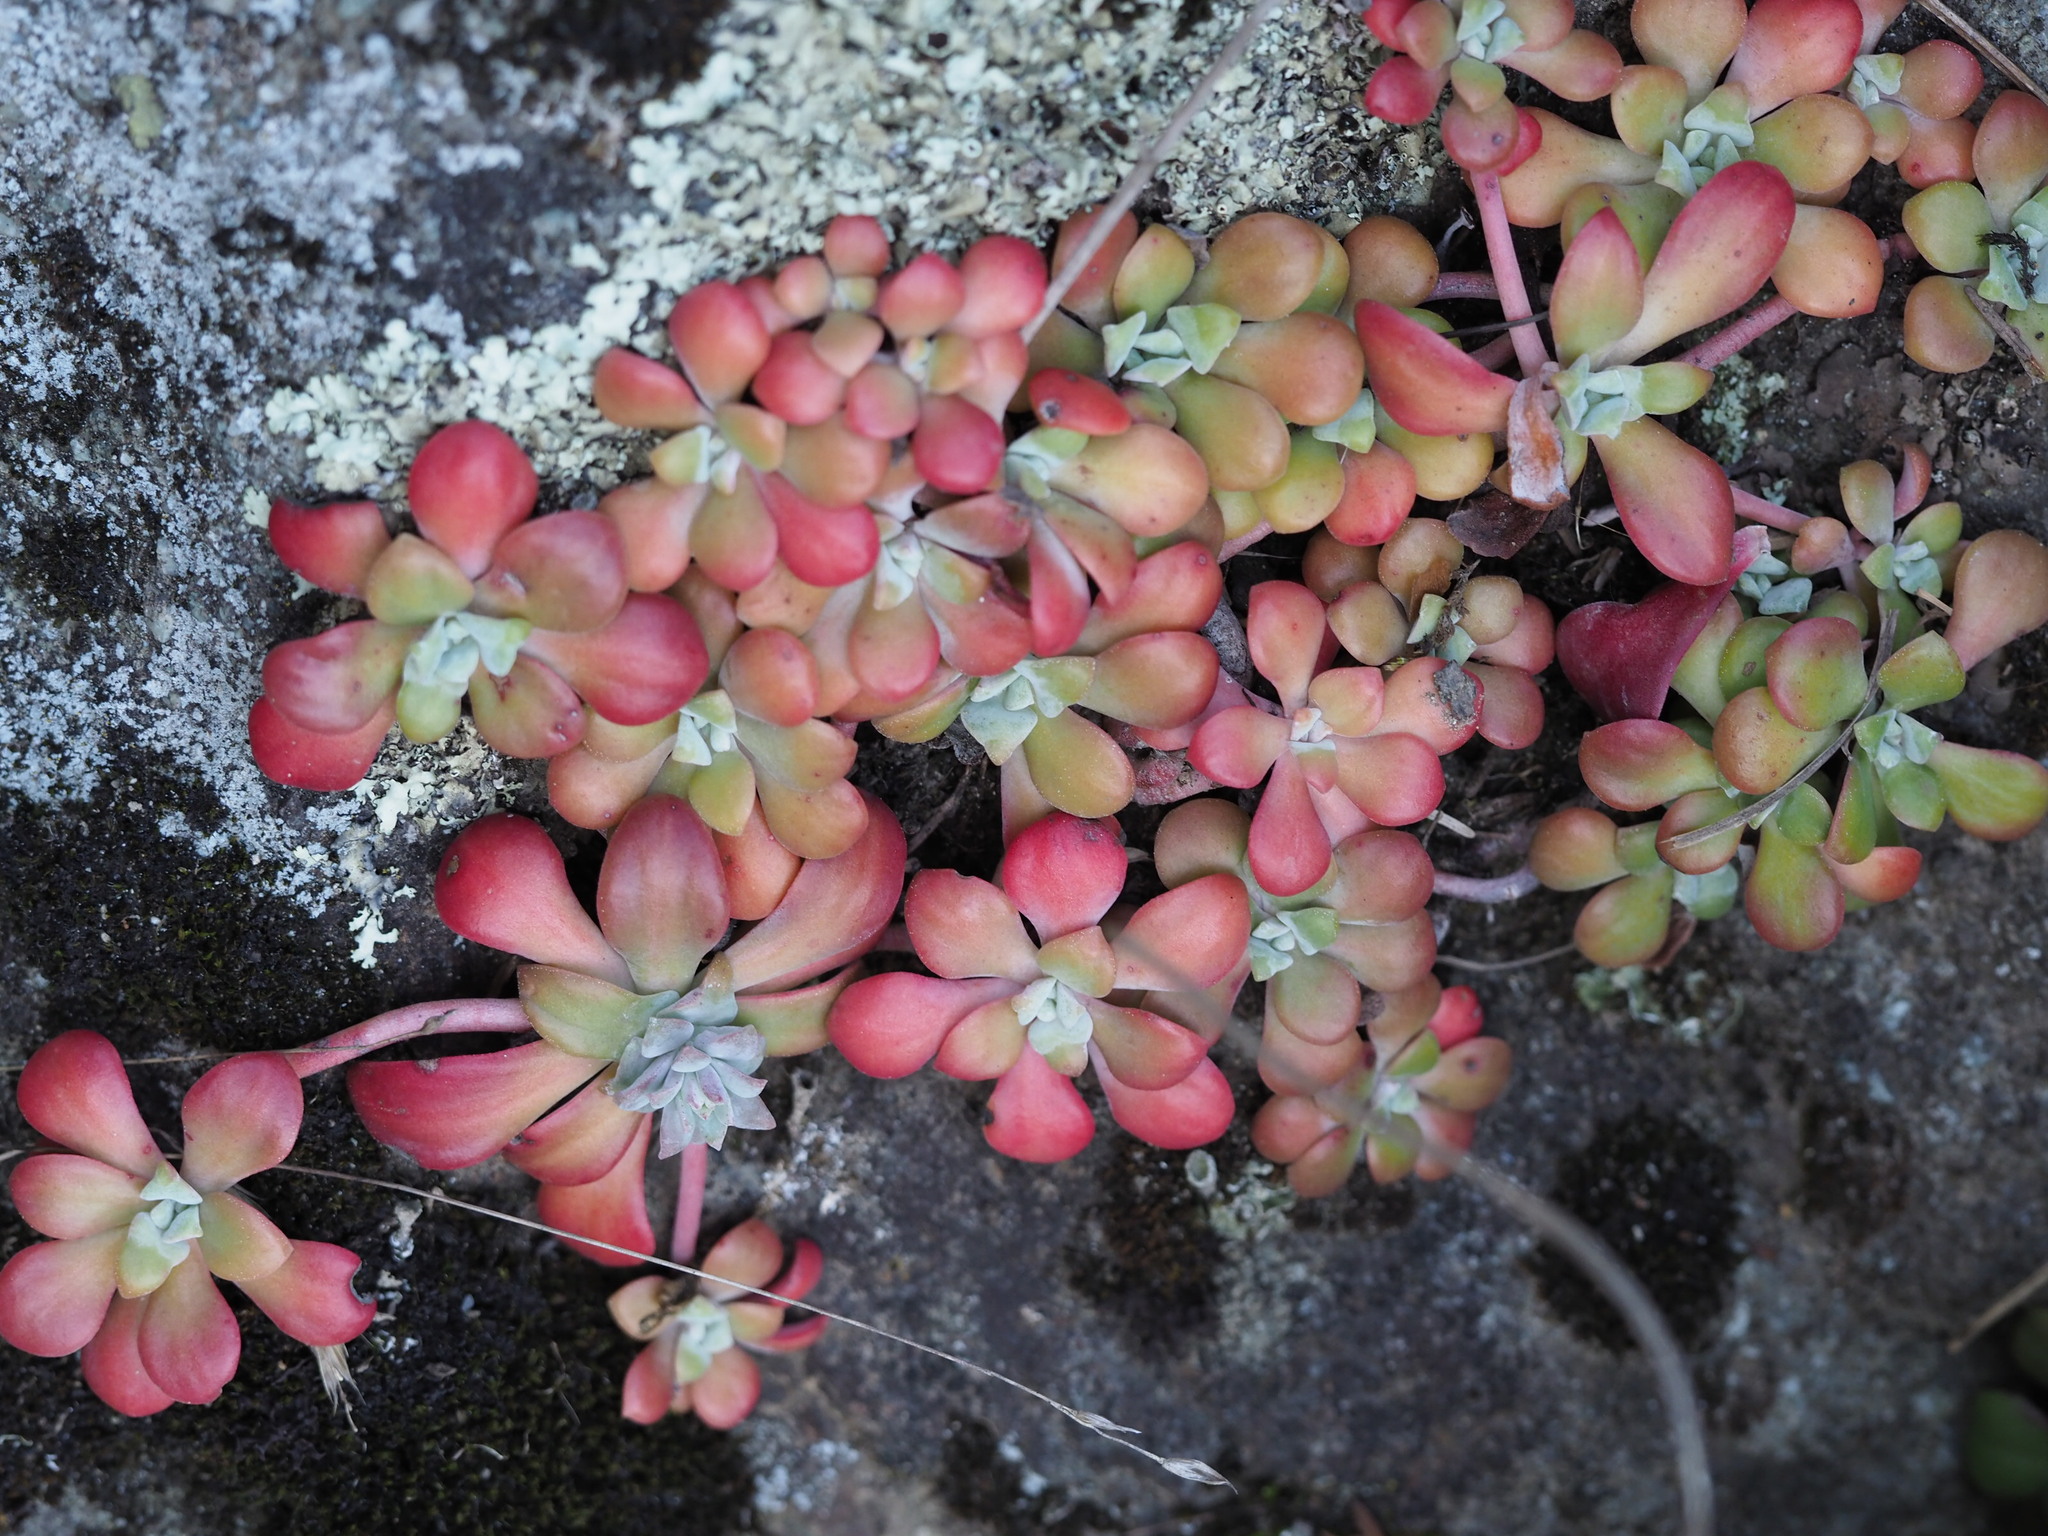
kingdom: Plantae
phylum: Tracheophyta
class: Magnoliopsida
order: Saxifragales
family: Crassulaceae
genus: Sedum
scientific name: Sedum spathulifolium
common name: Colorado stonecrop
